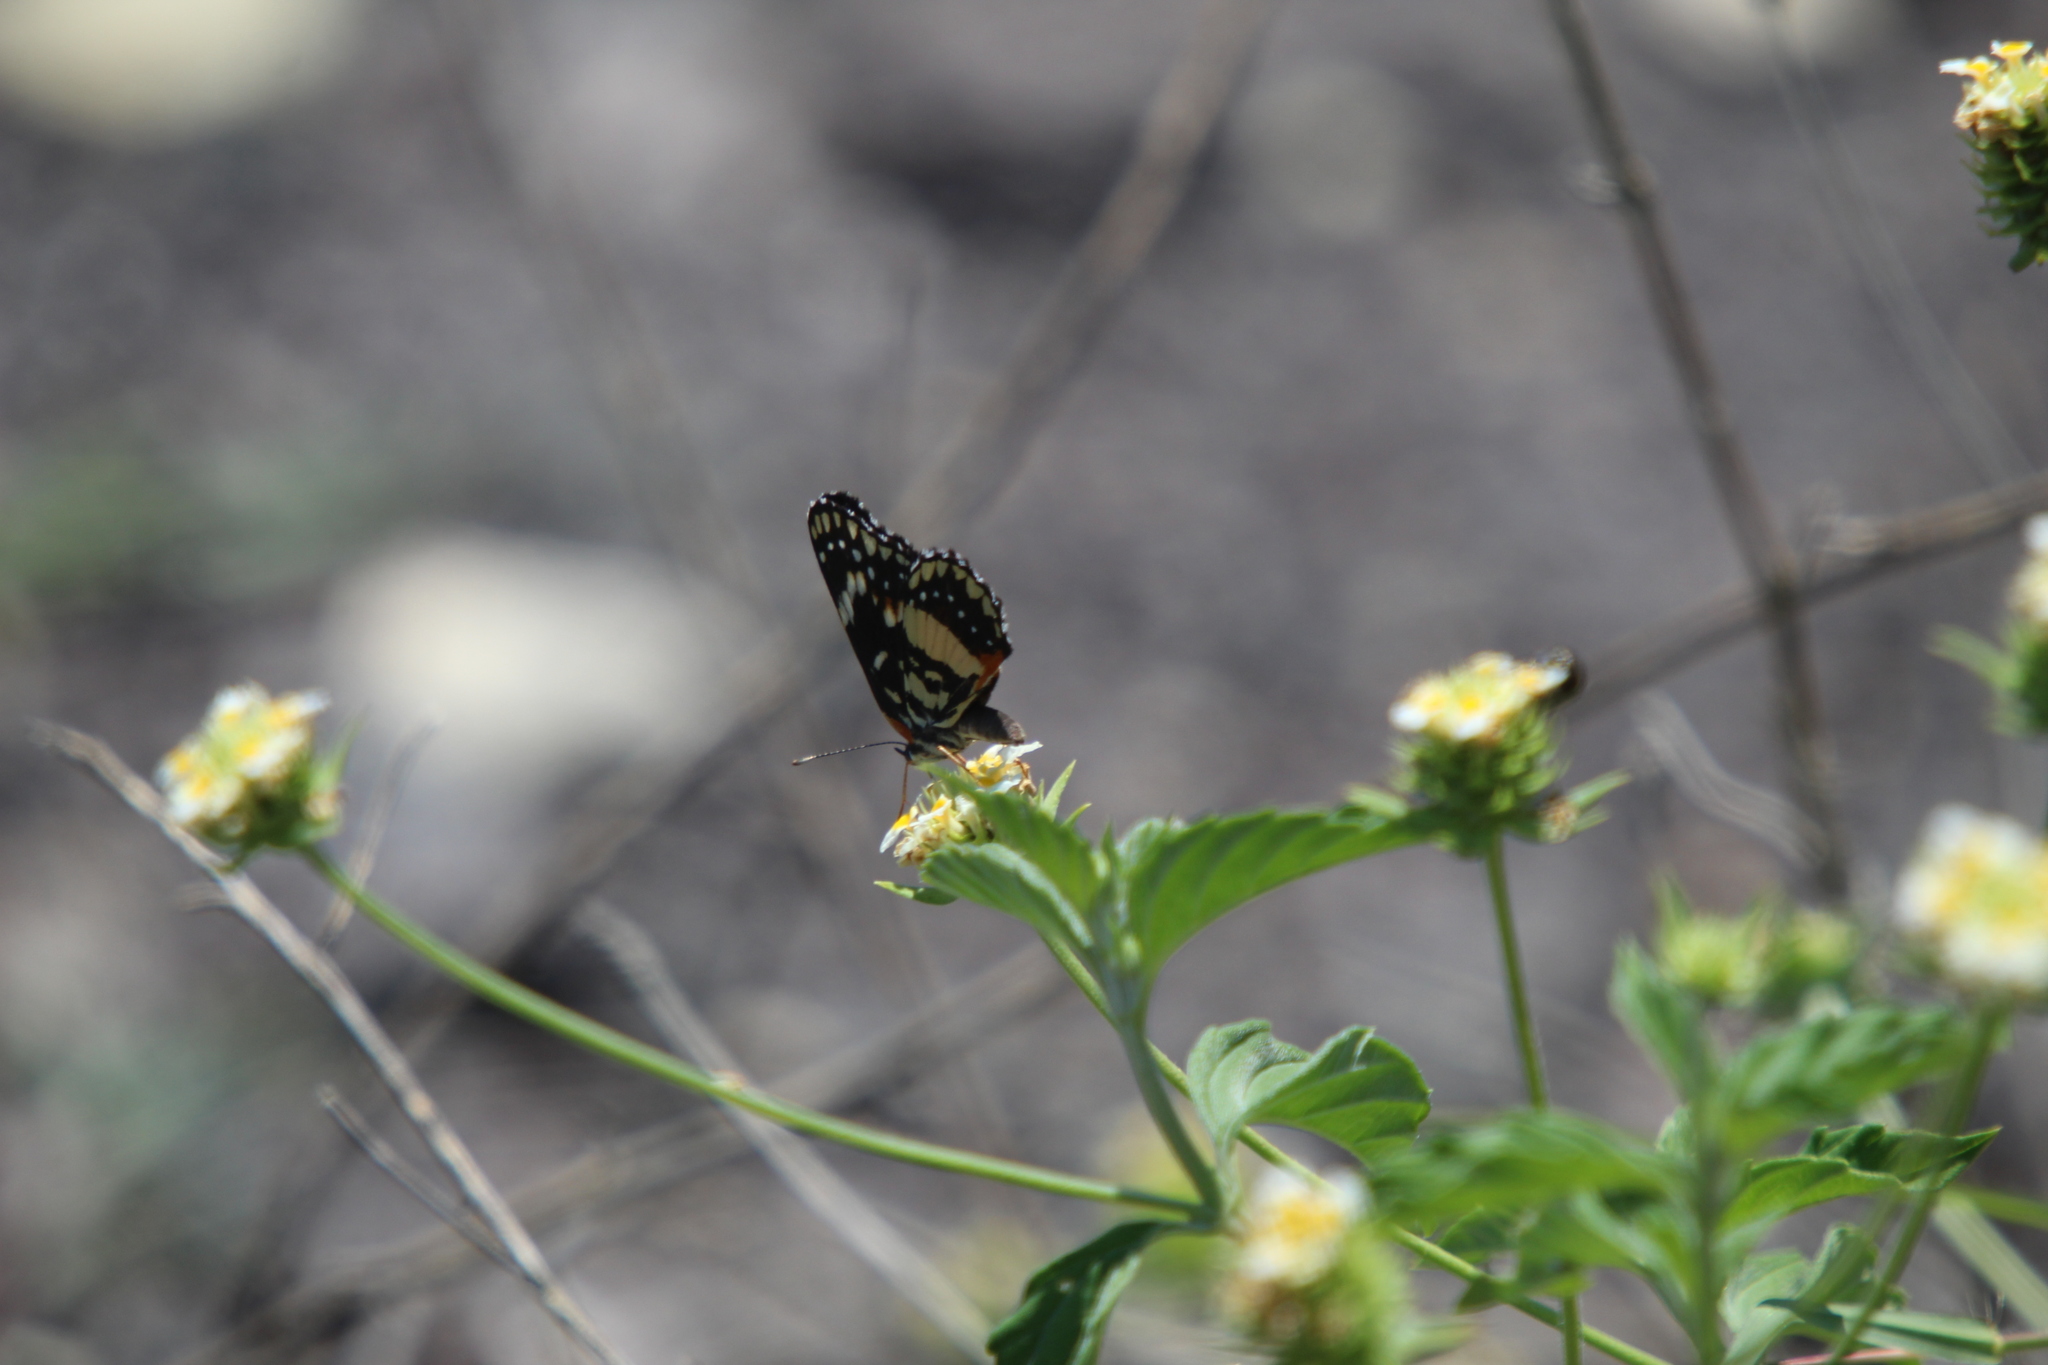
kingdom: Animalia
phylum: Arthropoda
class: Insecta
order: Lepidoptera
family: Nymphalidae
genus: Chlosyne
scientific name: Chlosyne lacinia
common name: Bordered patch
